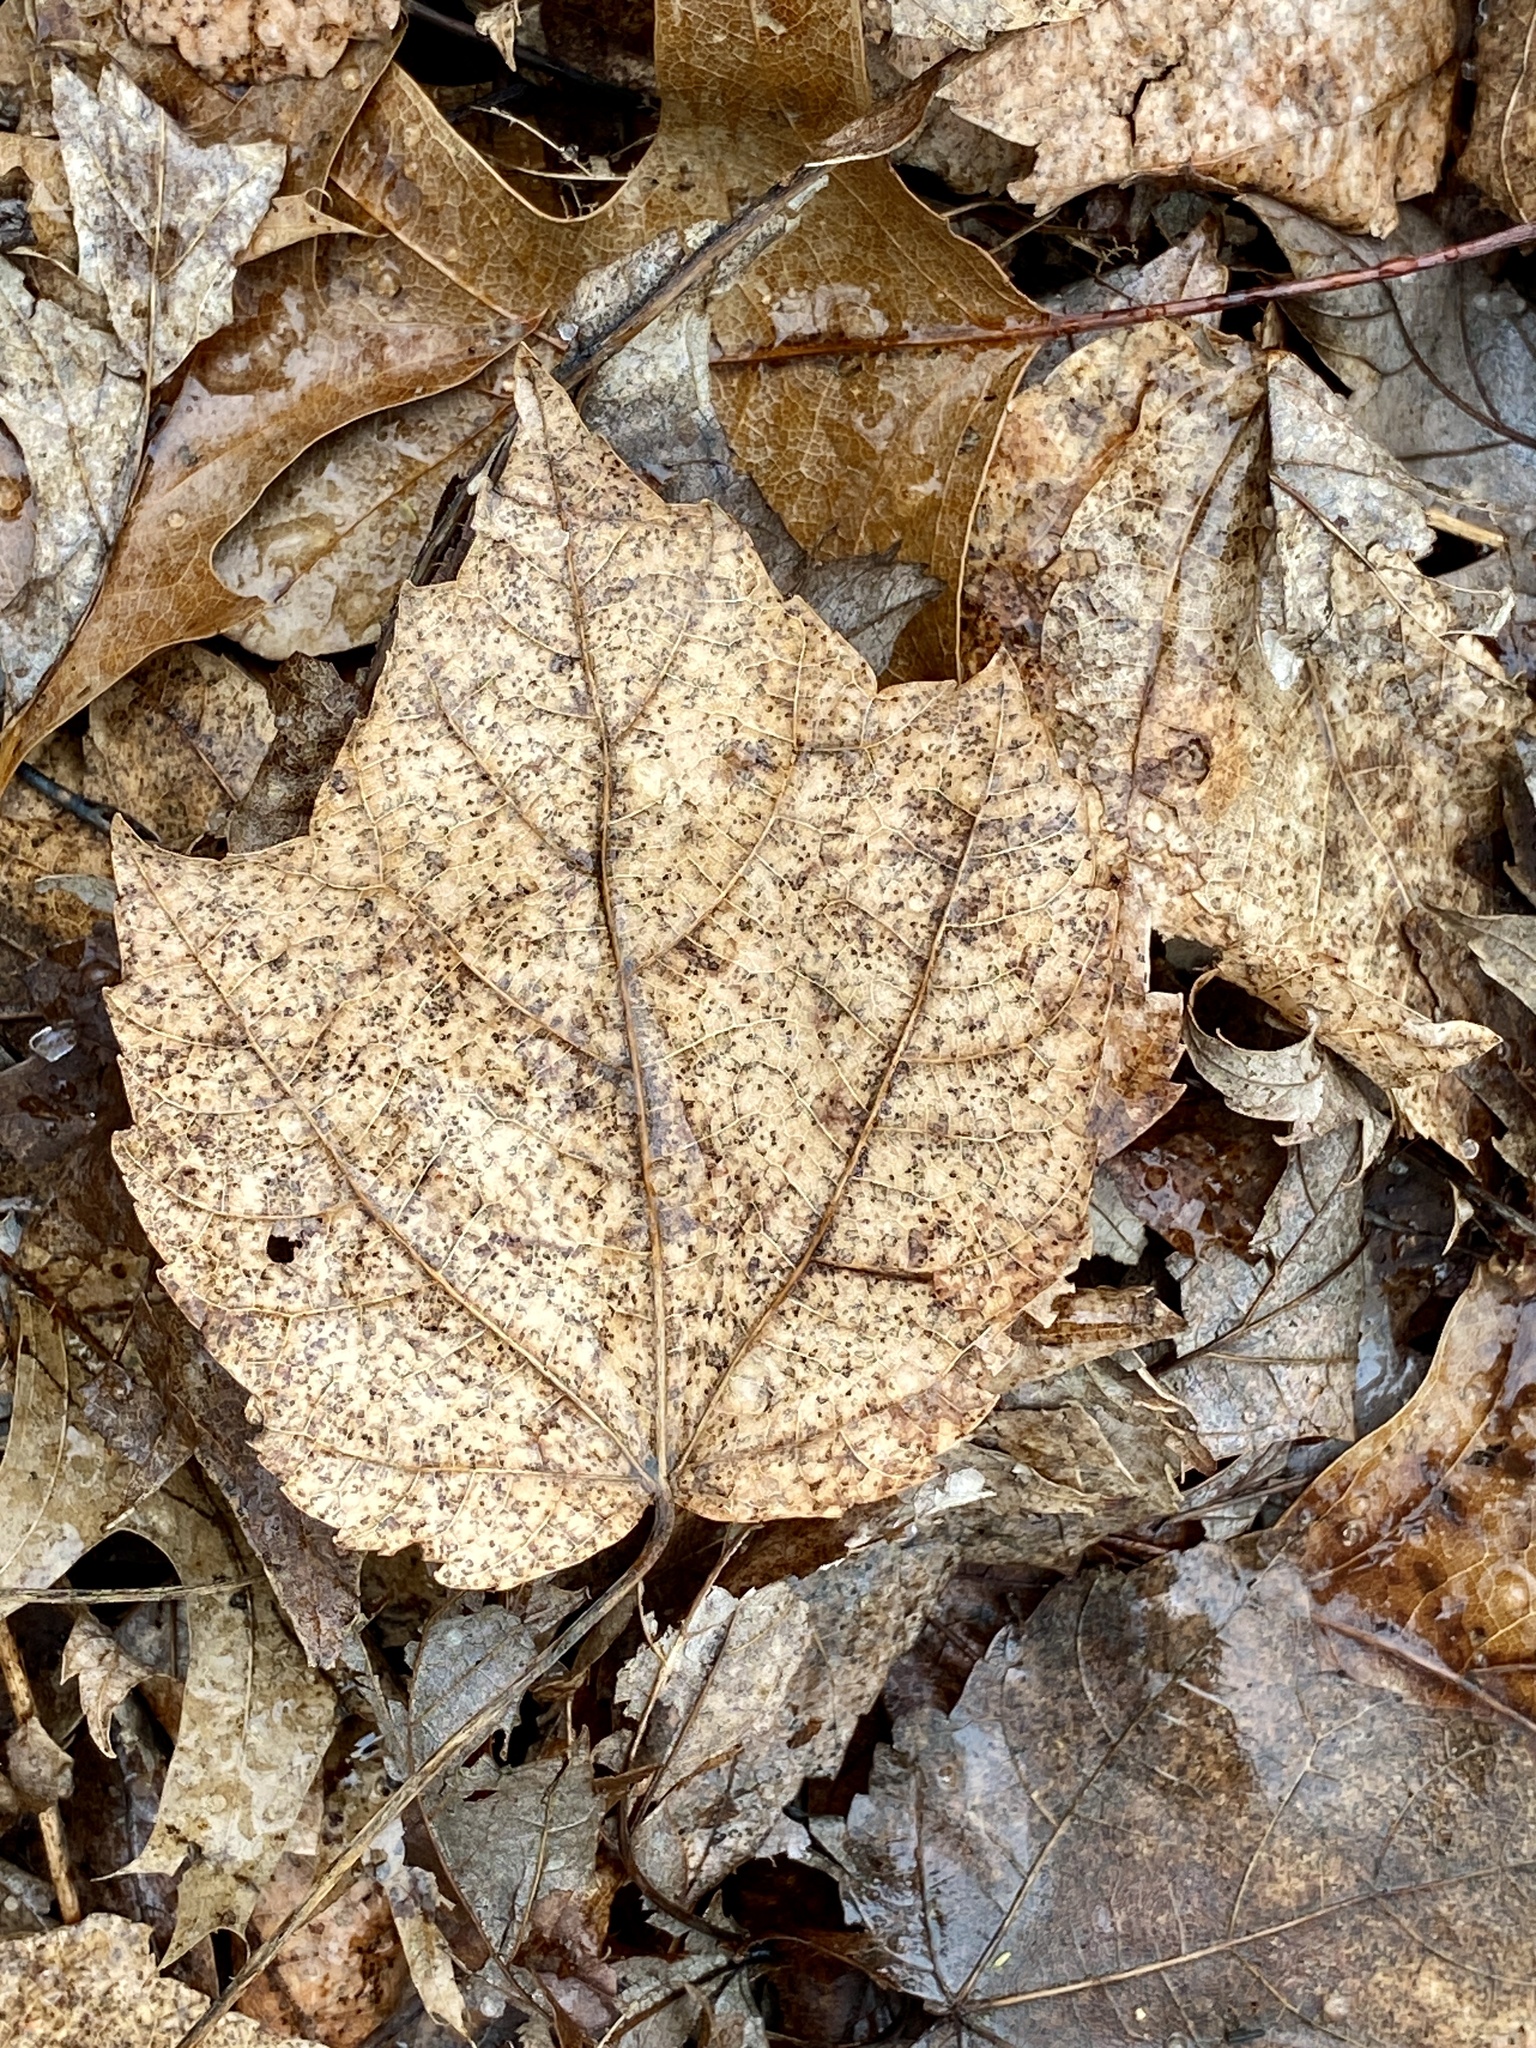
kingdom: Plantae
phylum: Tracheophyta
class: Magnoliopsida
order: Sapindales
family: Sapindaceae
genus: Acer
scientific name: Acer rubrum
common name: Red maple
